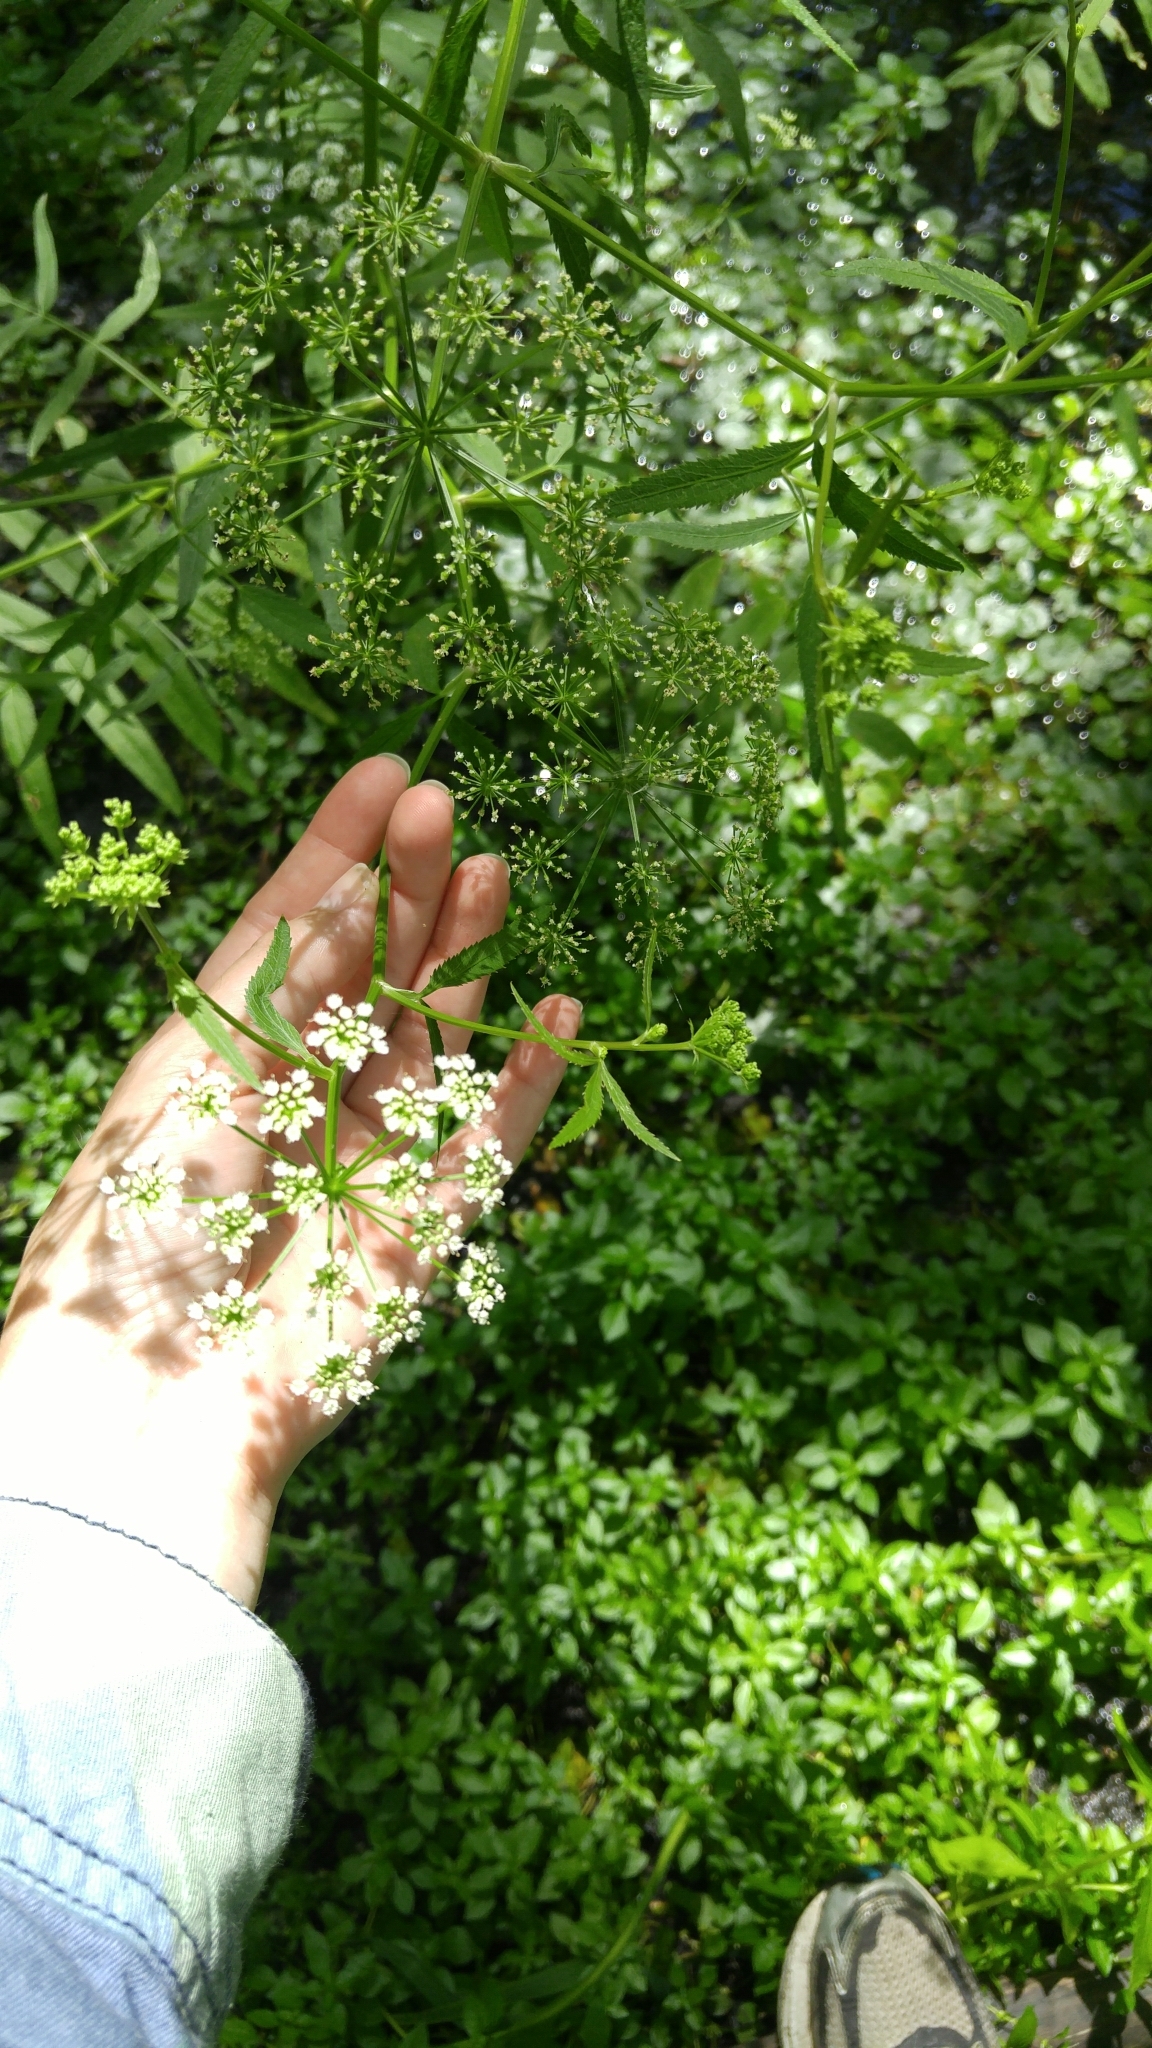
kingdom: Plantae
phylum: Tracheophyta
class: Magnoliopsida
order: Apiales
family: Apiaceae
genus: Sium
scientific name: Sium suave
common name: Hemlock water-parsnip
